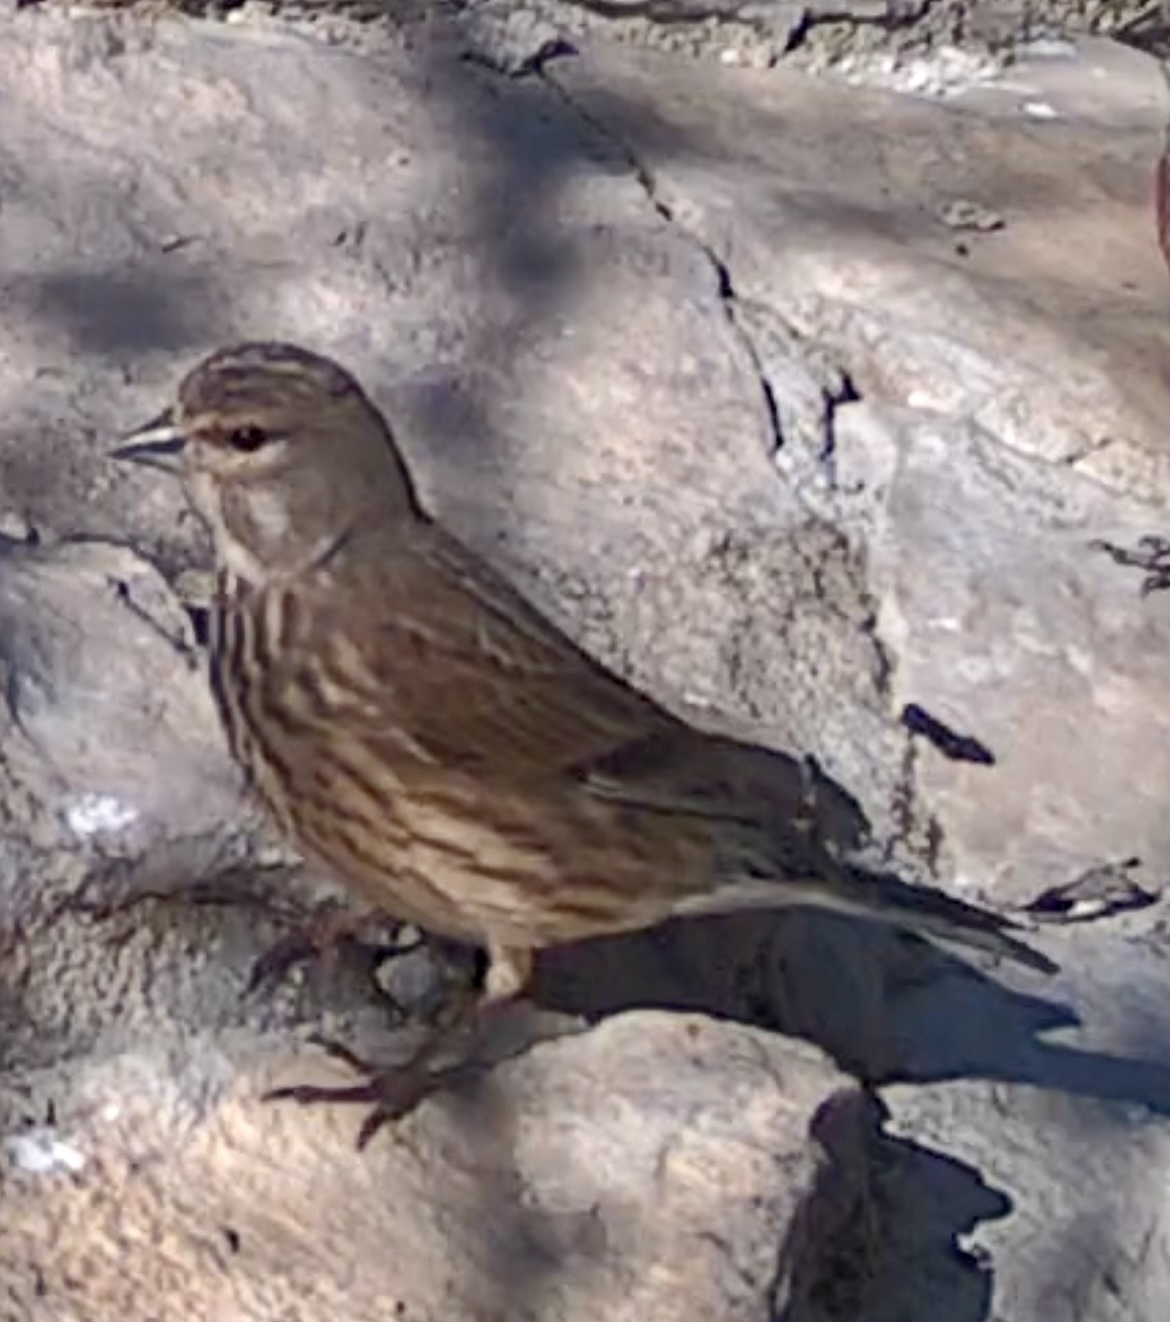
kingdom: Animalia
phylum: Chordata
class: Aves
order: Passeriformes
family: Fringillidae
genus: Linaria
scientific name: Linaria cannabina
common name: Common linnet
